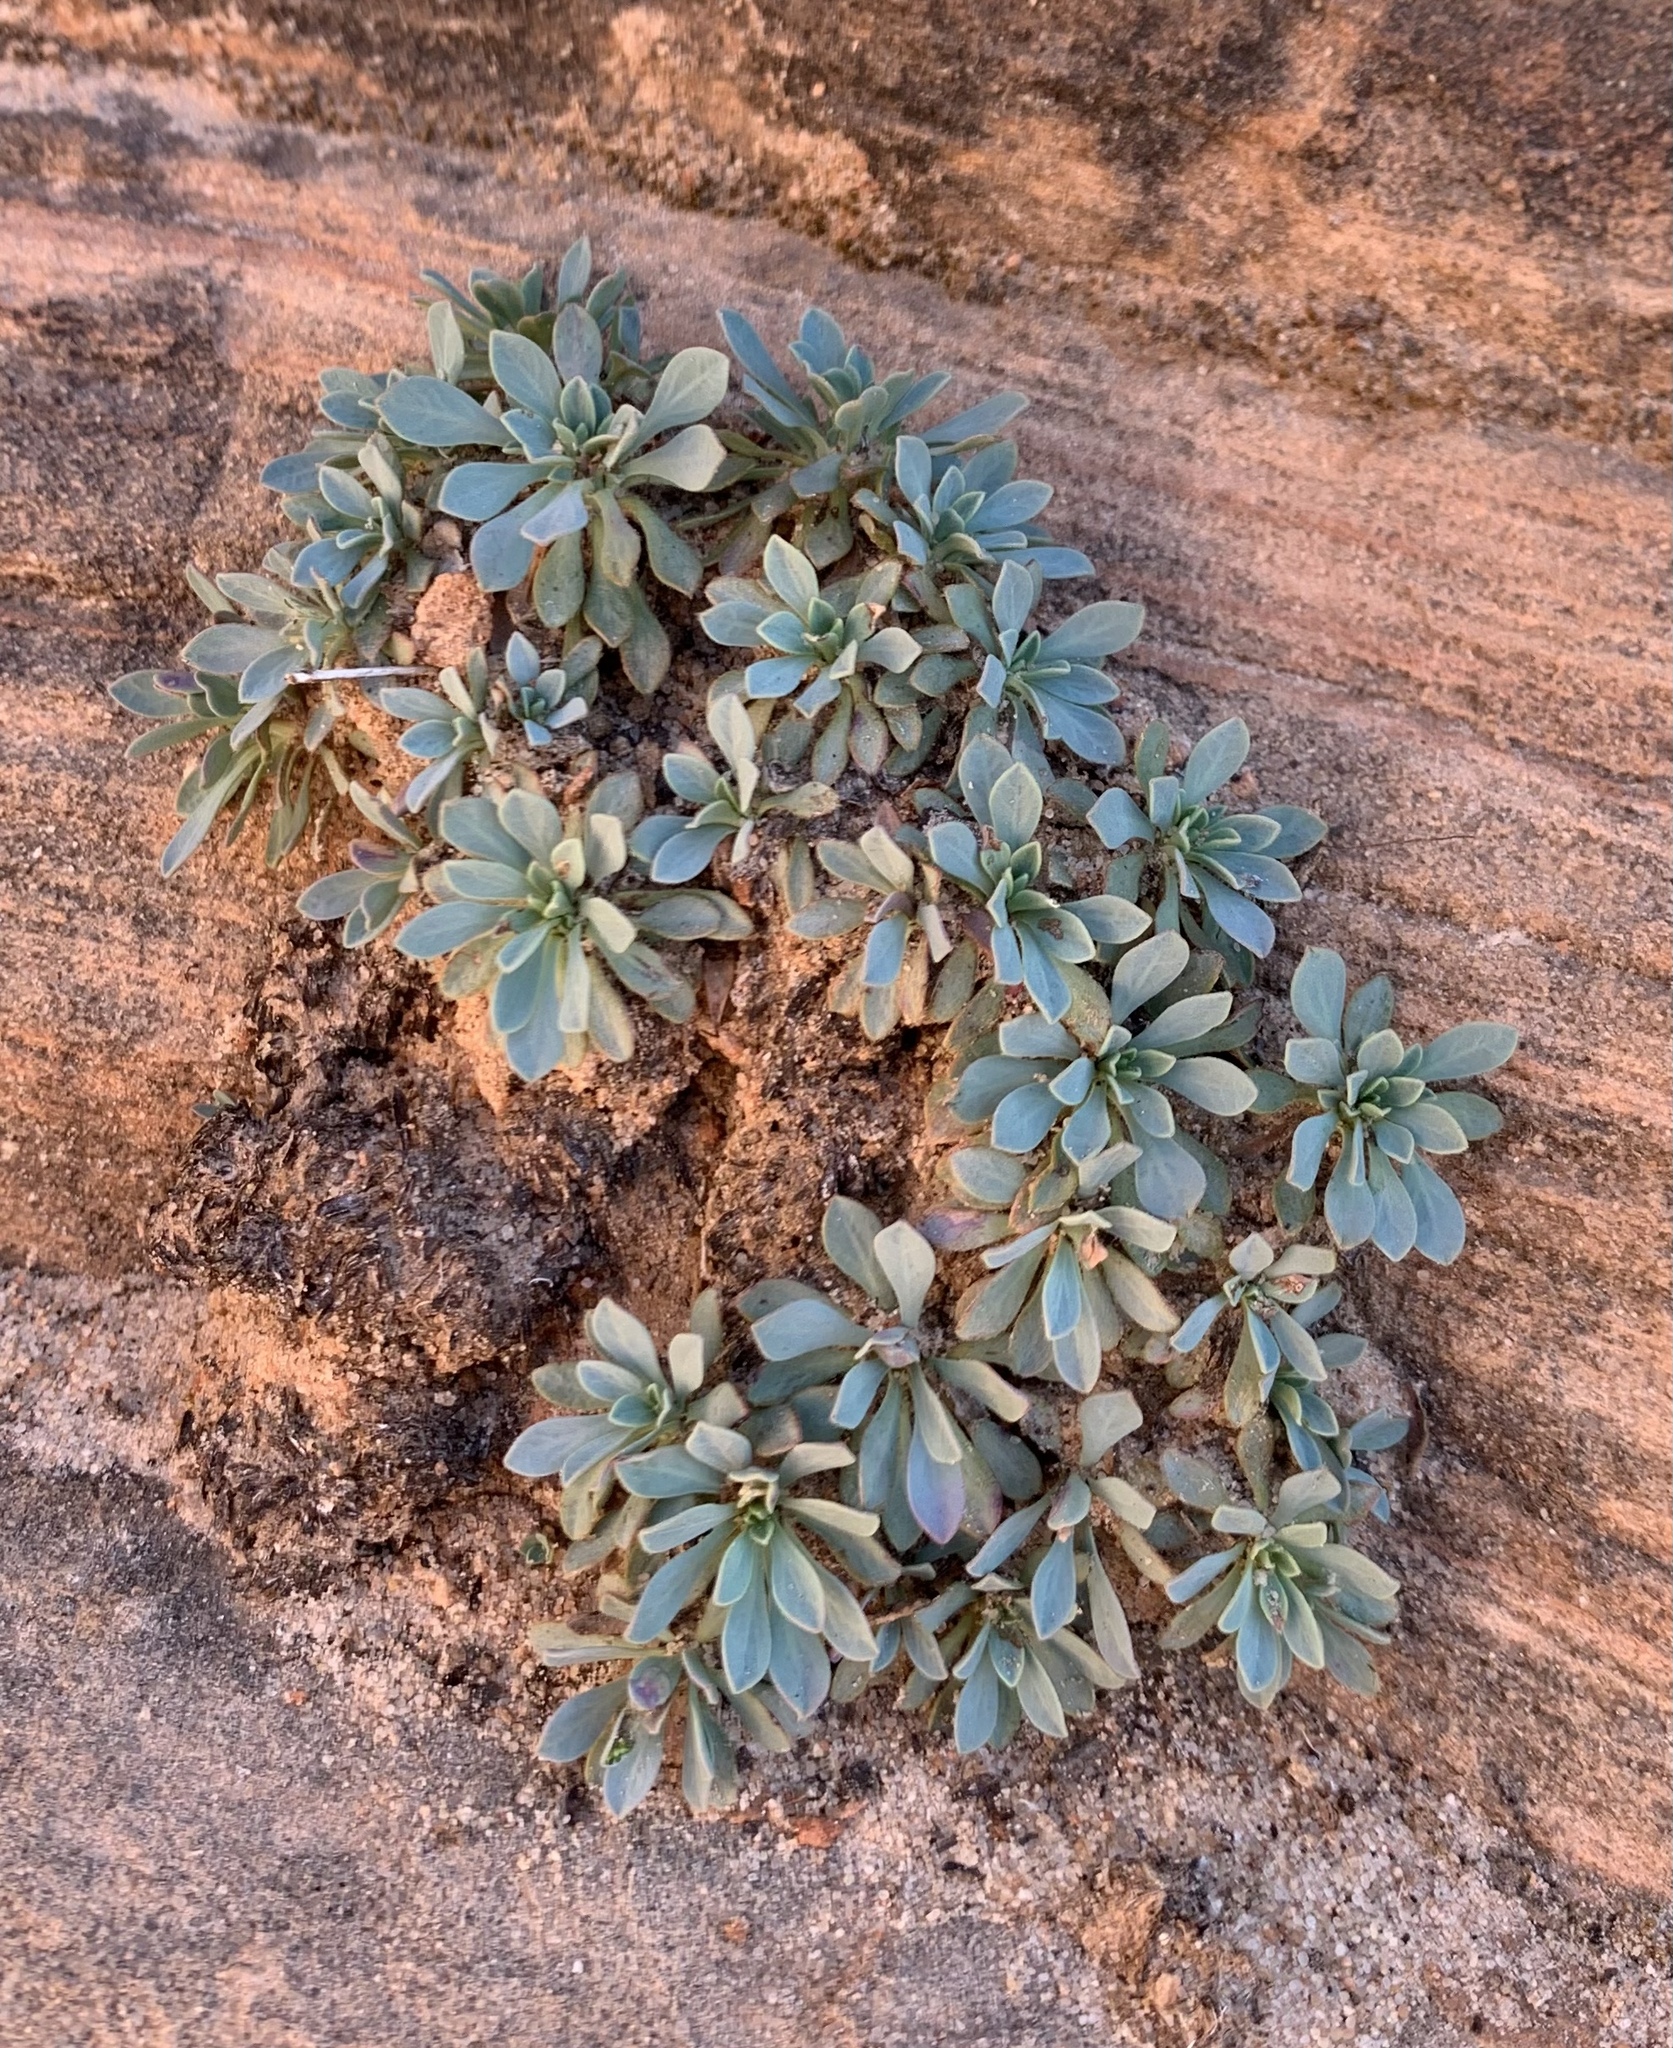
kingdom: Plantae
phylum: Tracheophyta
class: Magnoliopsida
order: Rosales
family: Rosaceae
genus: Petrophytum
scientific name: Petrophytum caespitosum
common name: Mat rockspirea
